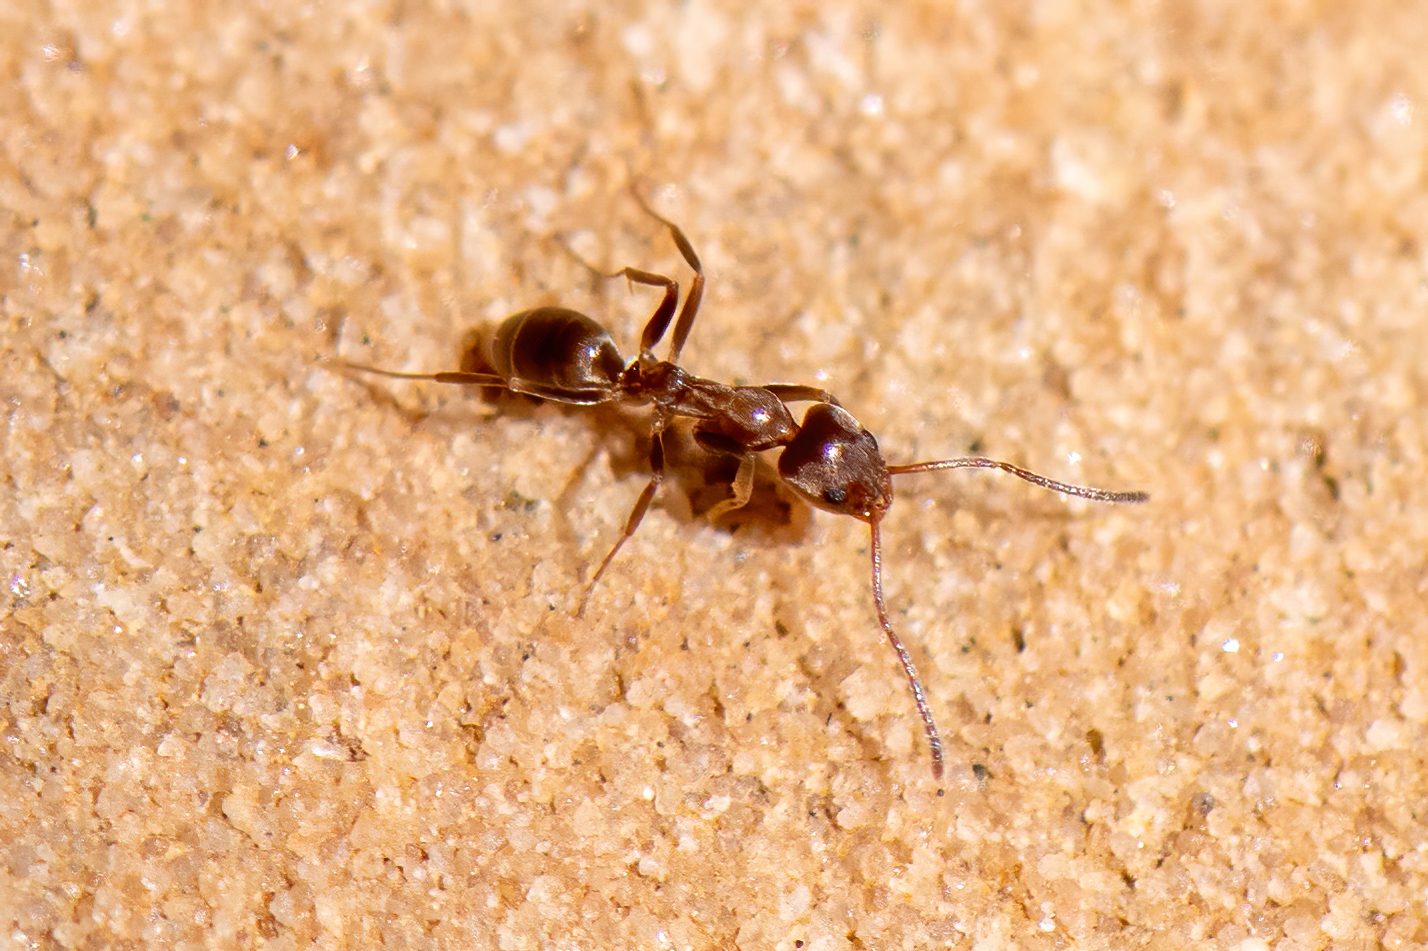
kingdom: Animalia
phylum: Arthropoda
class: Insecta
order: Hymenoptera
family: Formicidae
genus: Linepithema
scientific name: Linepithema humile
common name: Argentine ant
